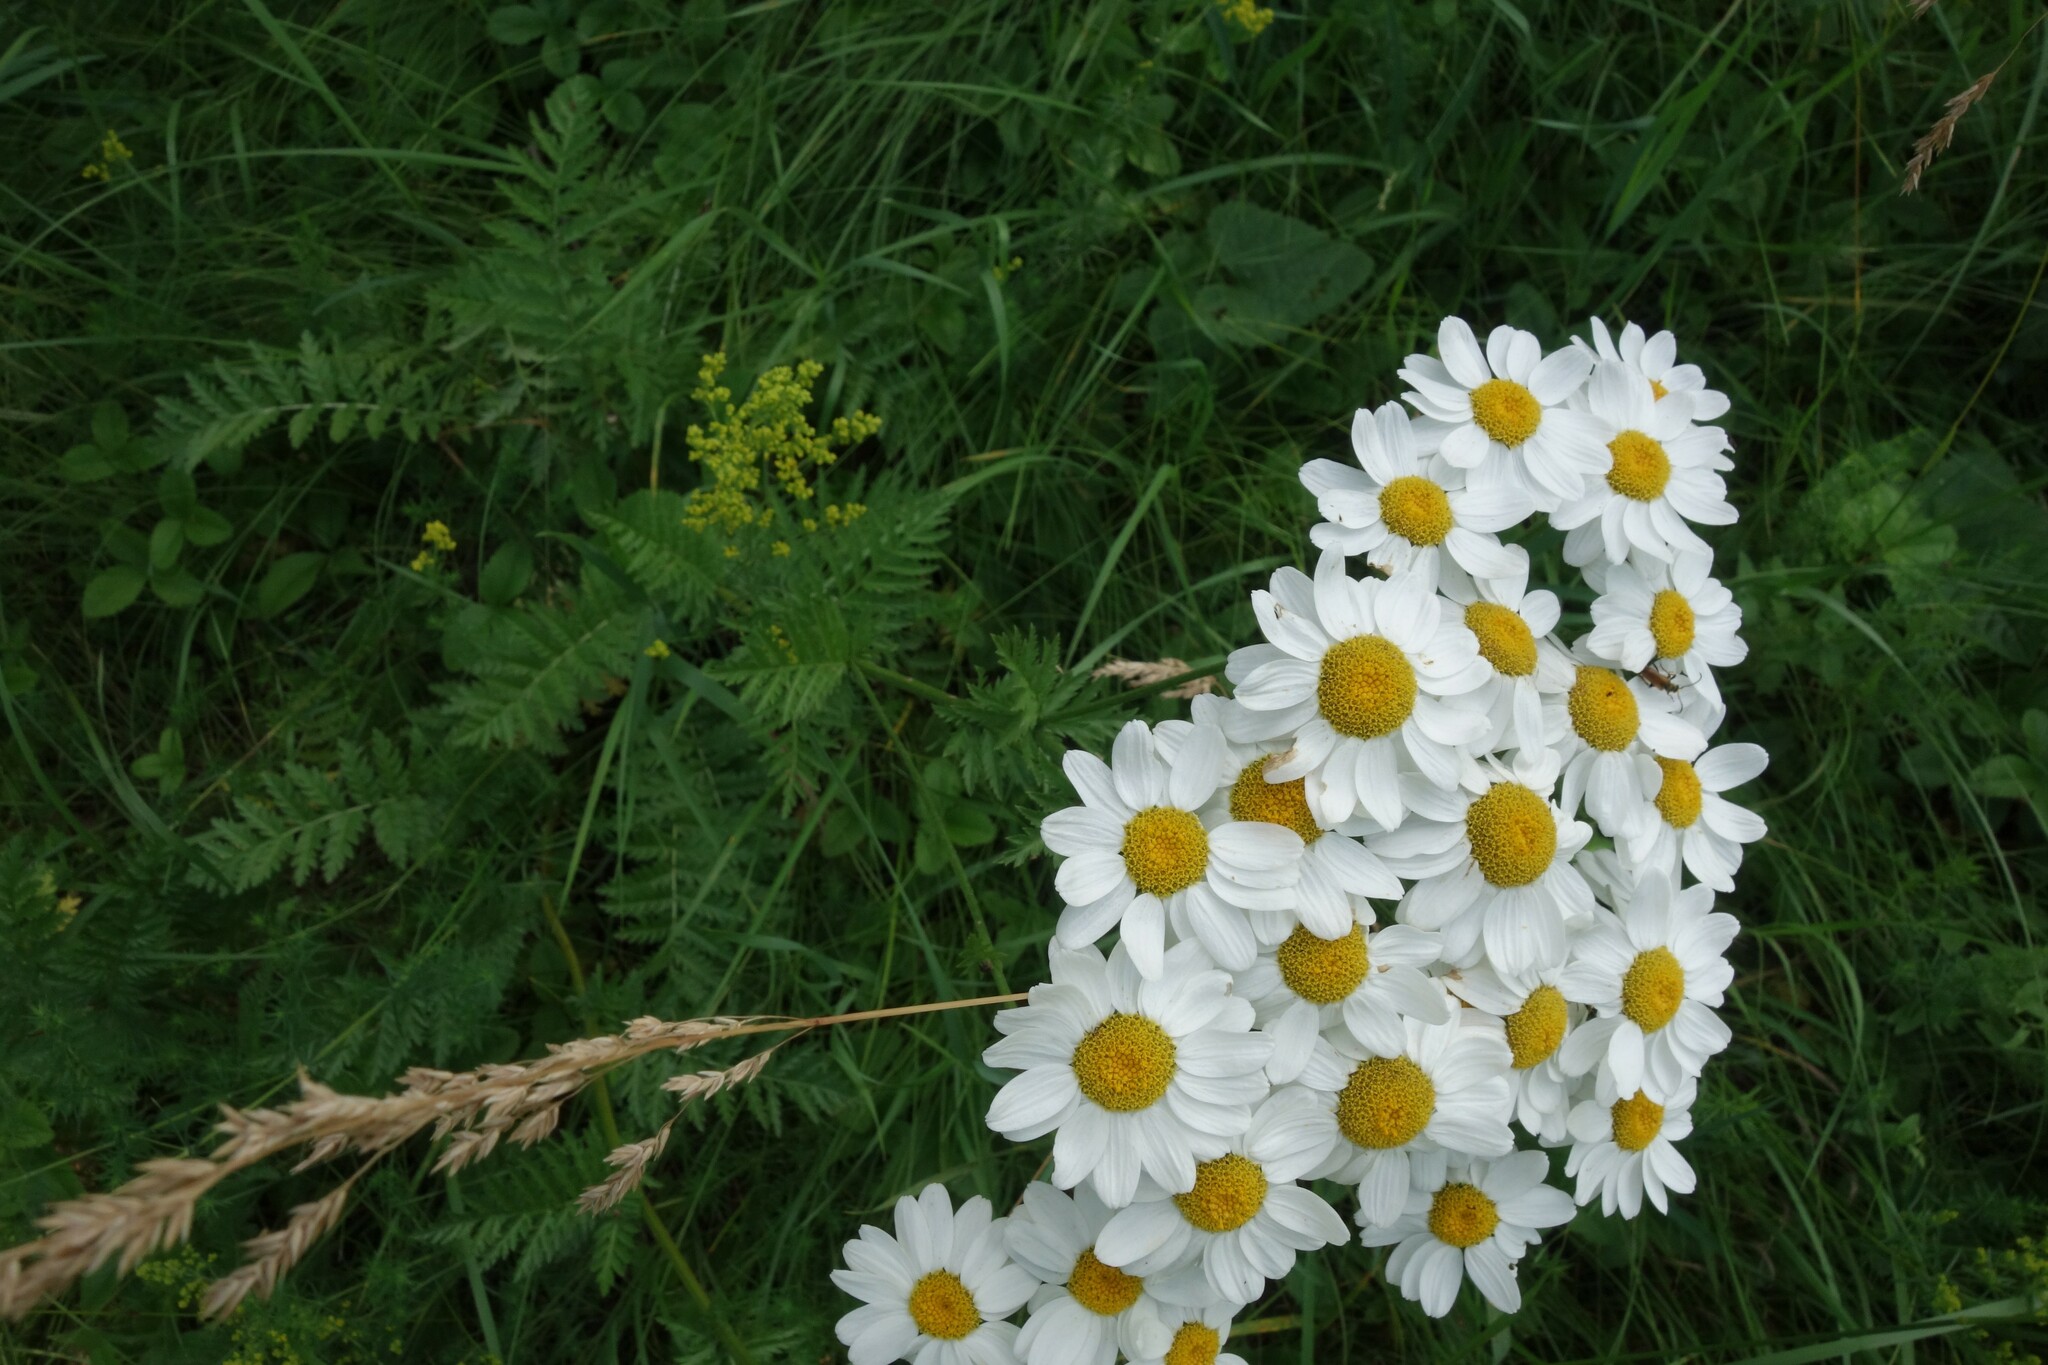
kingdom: Plantae
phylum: Tracheophyta
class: Magnoliopsida
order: Asterales
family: Asteraceae
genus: Tanacetum
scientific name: Tanacetum corymbosum
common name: Scentless feverfew
